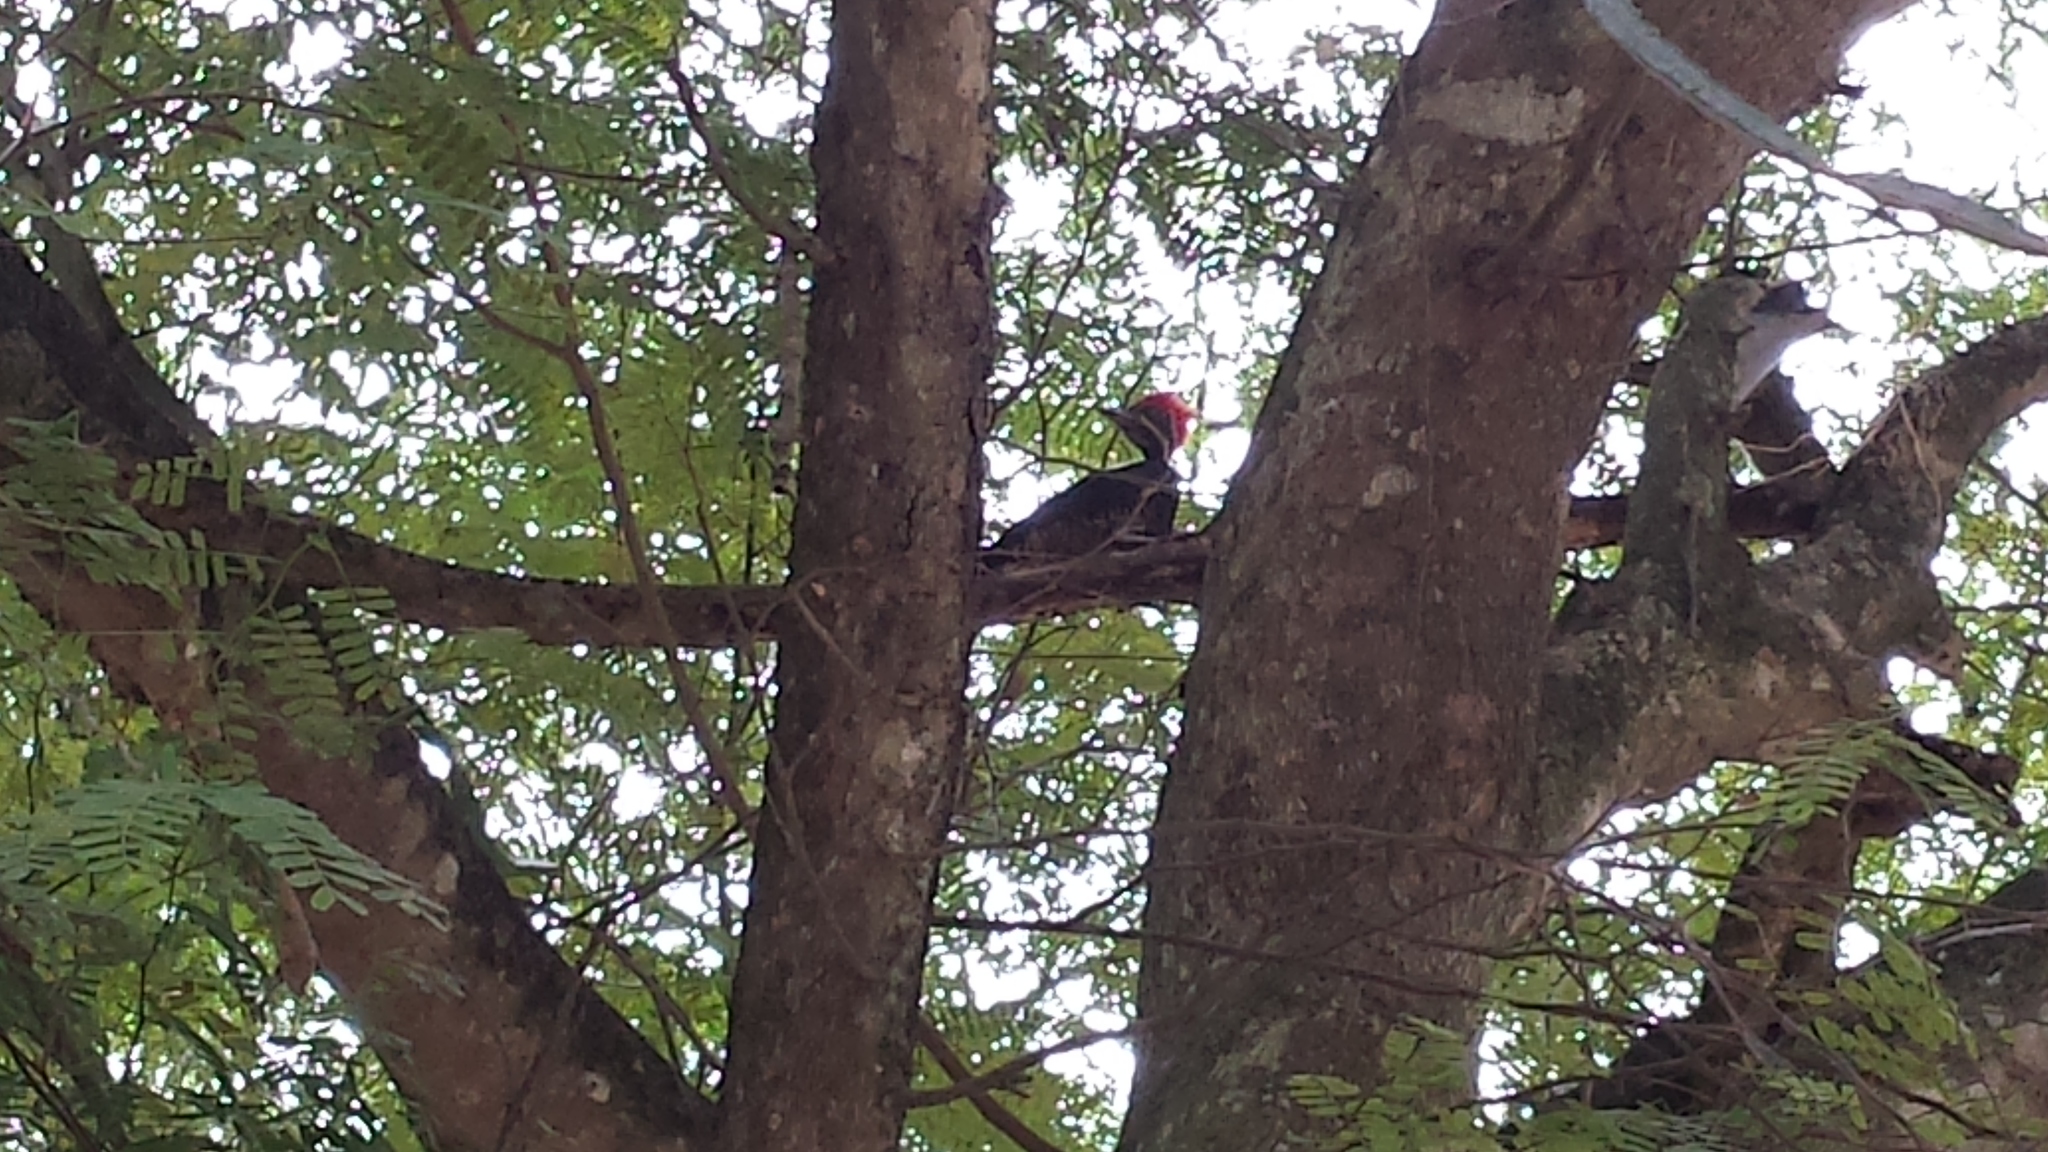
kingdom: Animalia
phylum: Chordata
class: Aves
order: Piciformes
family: Picidae
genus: Dryocopus
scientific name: Dryocopus lineatus
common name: Lineated woodpecker
